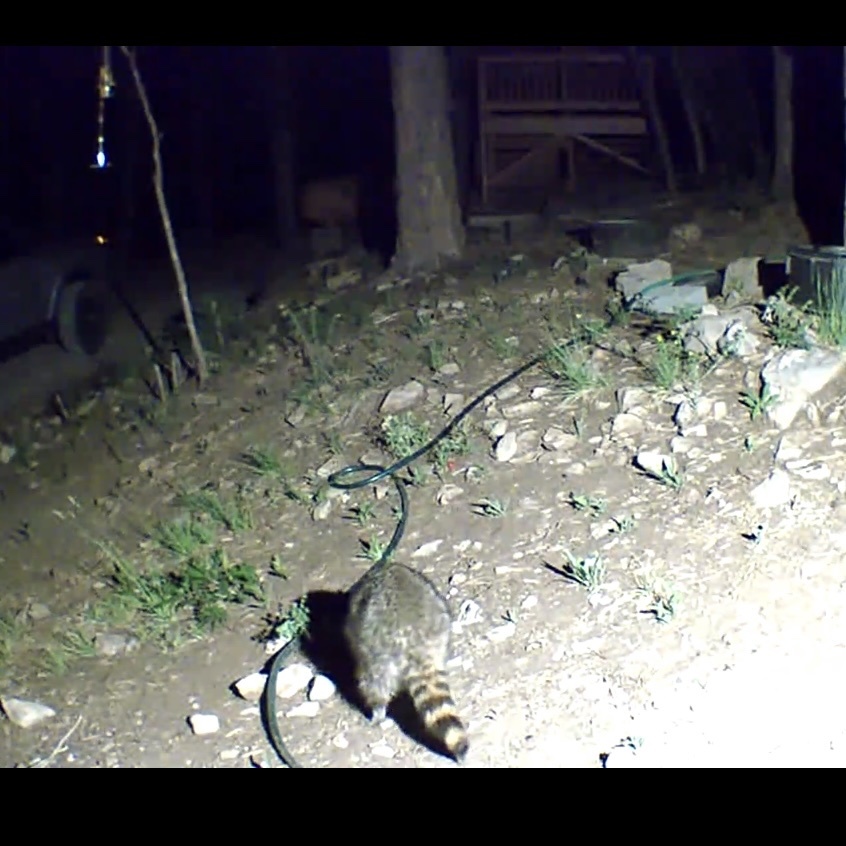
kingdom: Animalia
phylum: Chordata
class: Mammalia
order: Carnivora
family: Procyonidae
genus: Procyon
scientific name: Procyon lotor
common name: Raccoon
